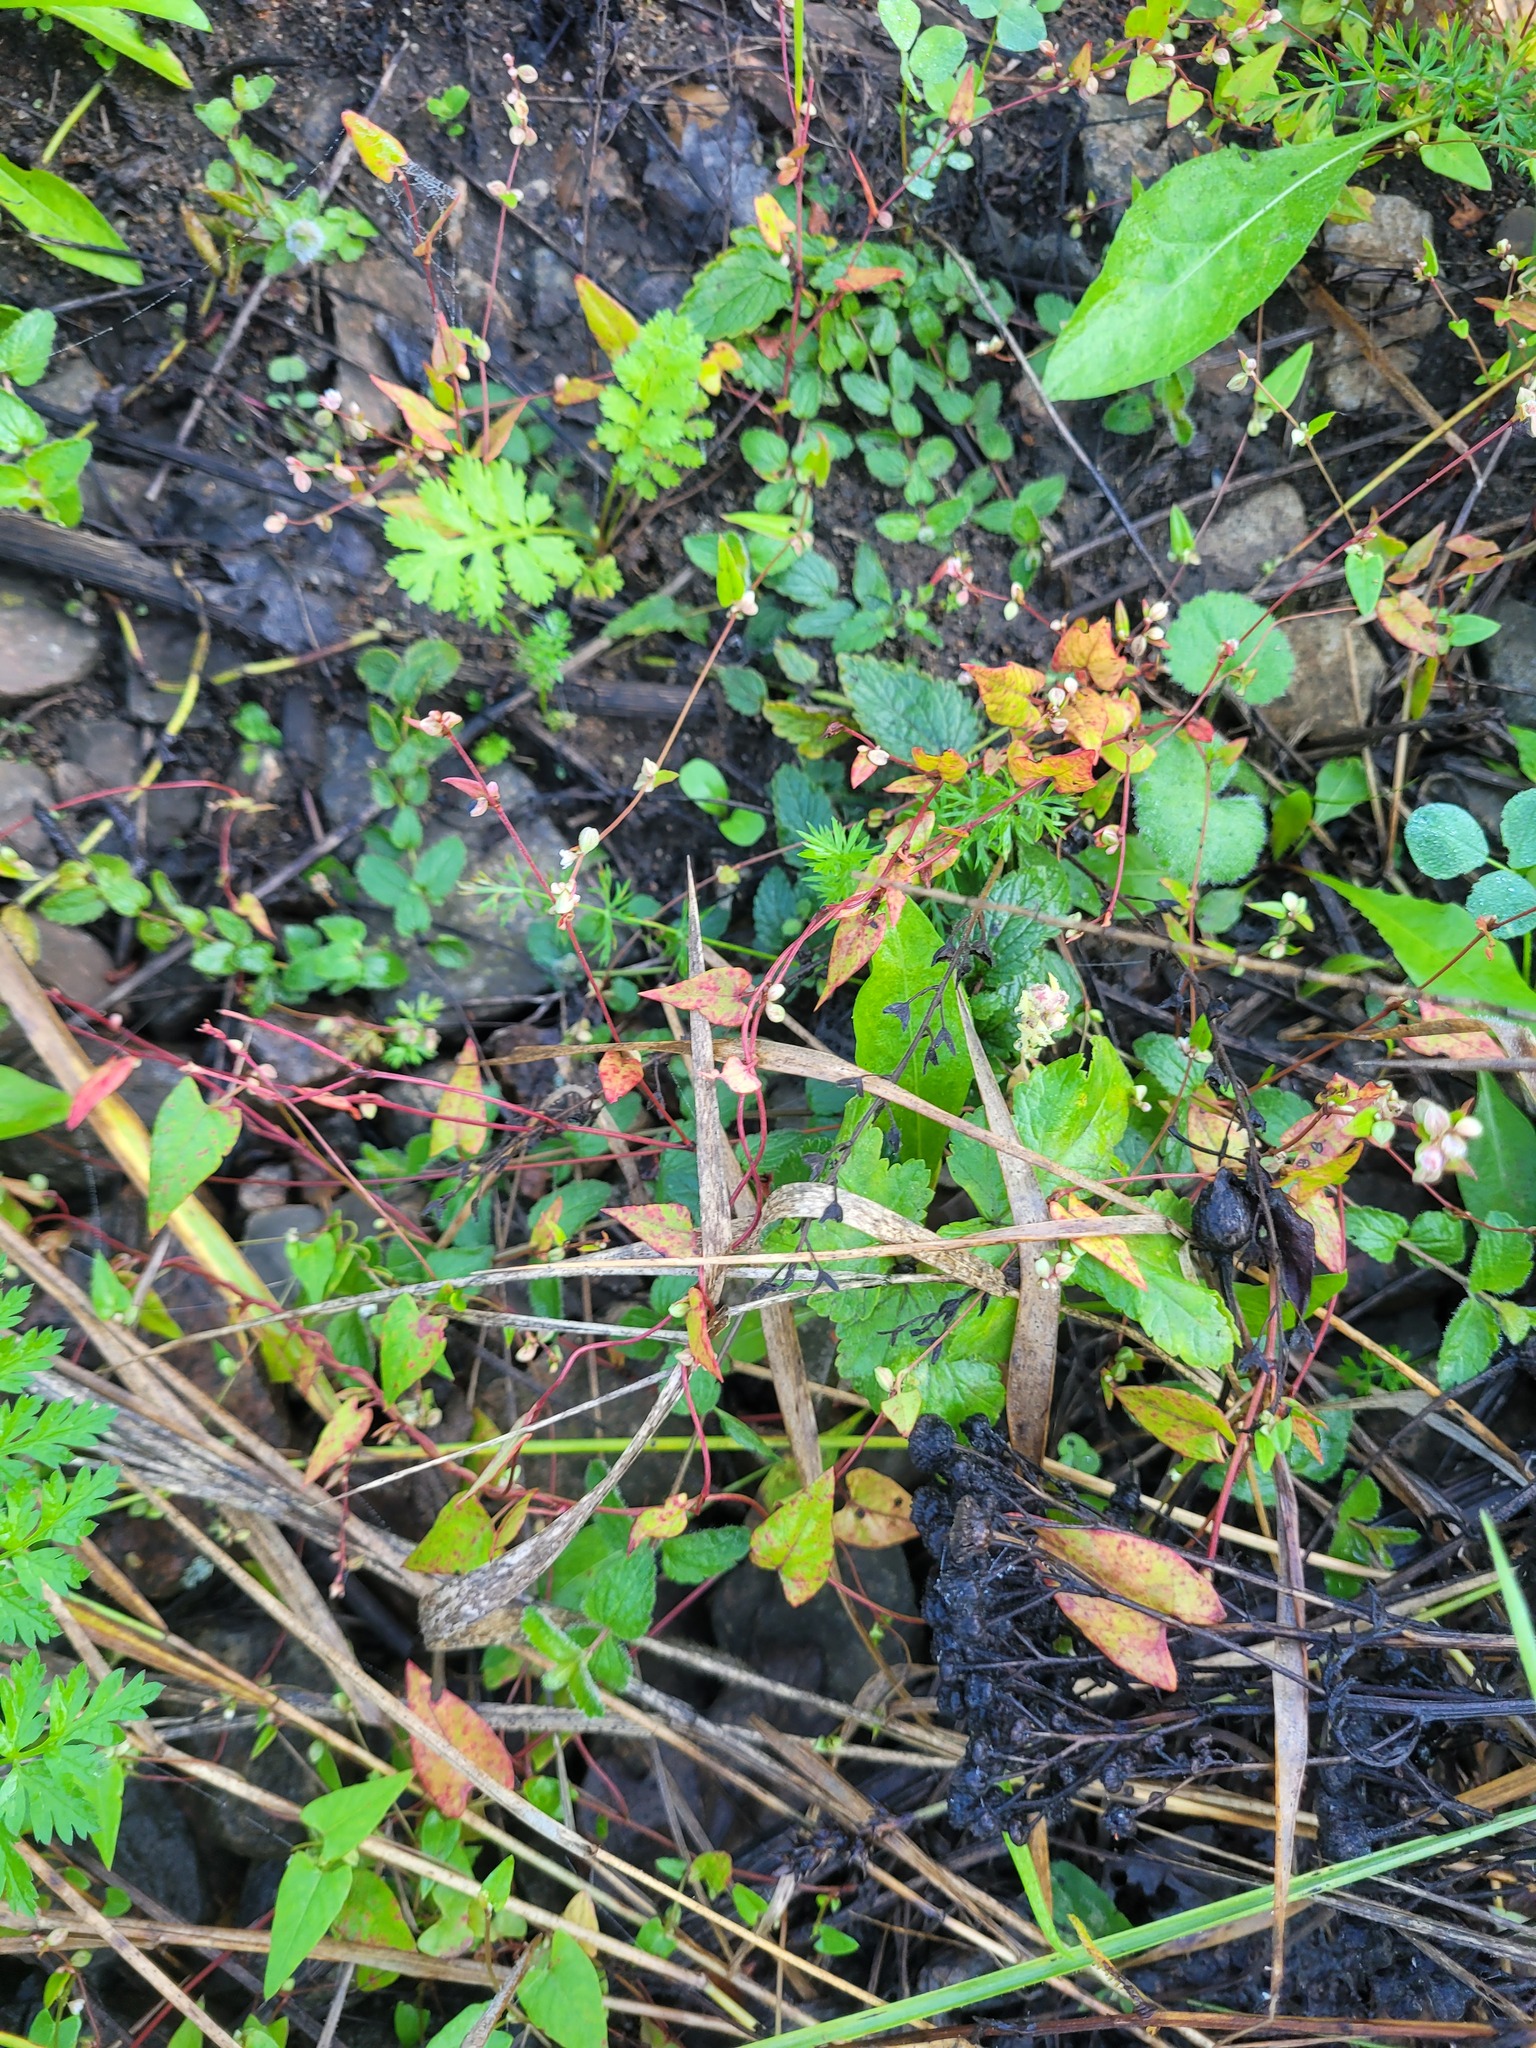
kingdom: Plantae
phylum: Tracheophyta
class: Magnoliopsida
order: Caryophyllales
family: Polygonaceae
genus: Fallopia
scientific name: Fallopia convolvulus
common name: Black bindweed
